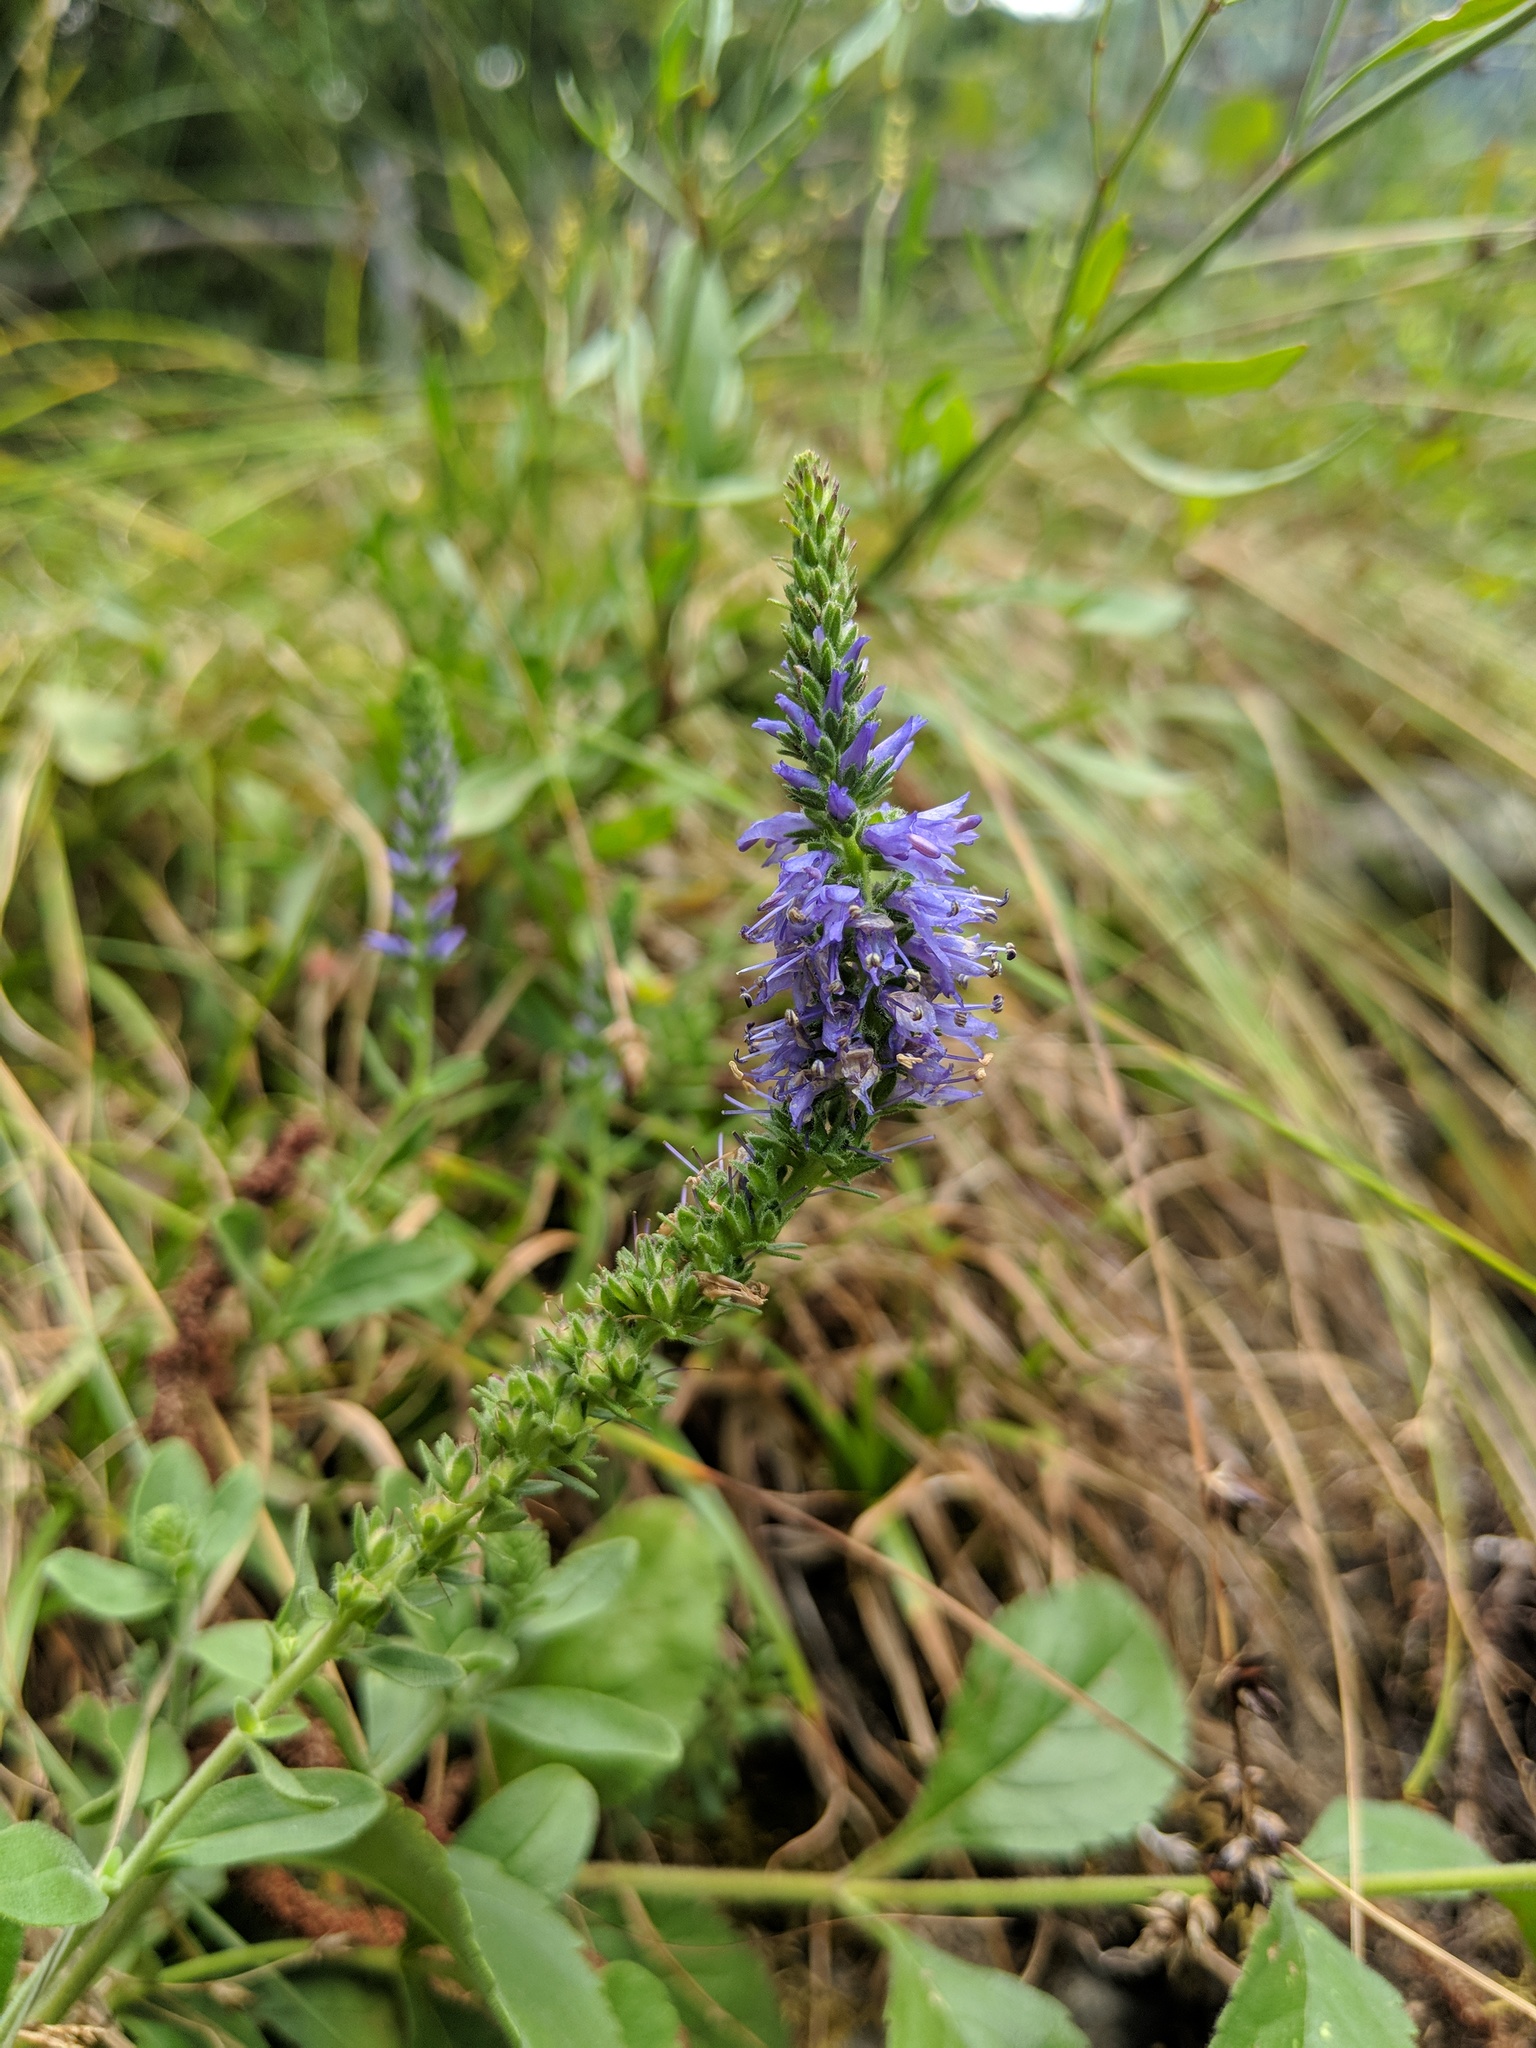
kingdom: Plantae
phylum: Tracheophyta
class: Magnoliopsida
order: Lamiales
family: Plantaginaceae
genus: Veronica
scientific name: Veronica spicata
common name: Spiked speedwell
